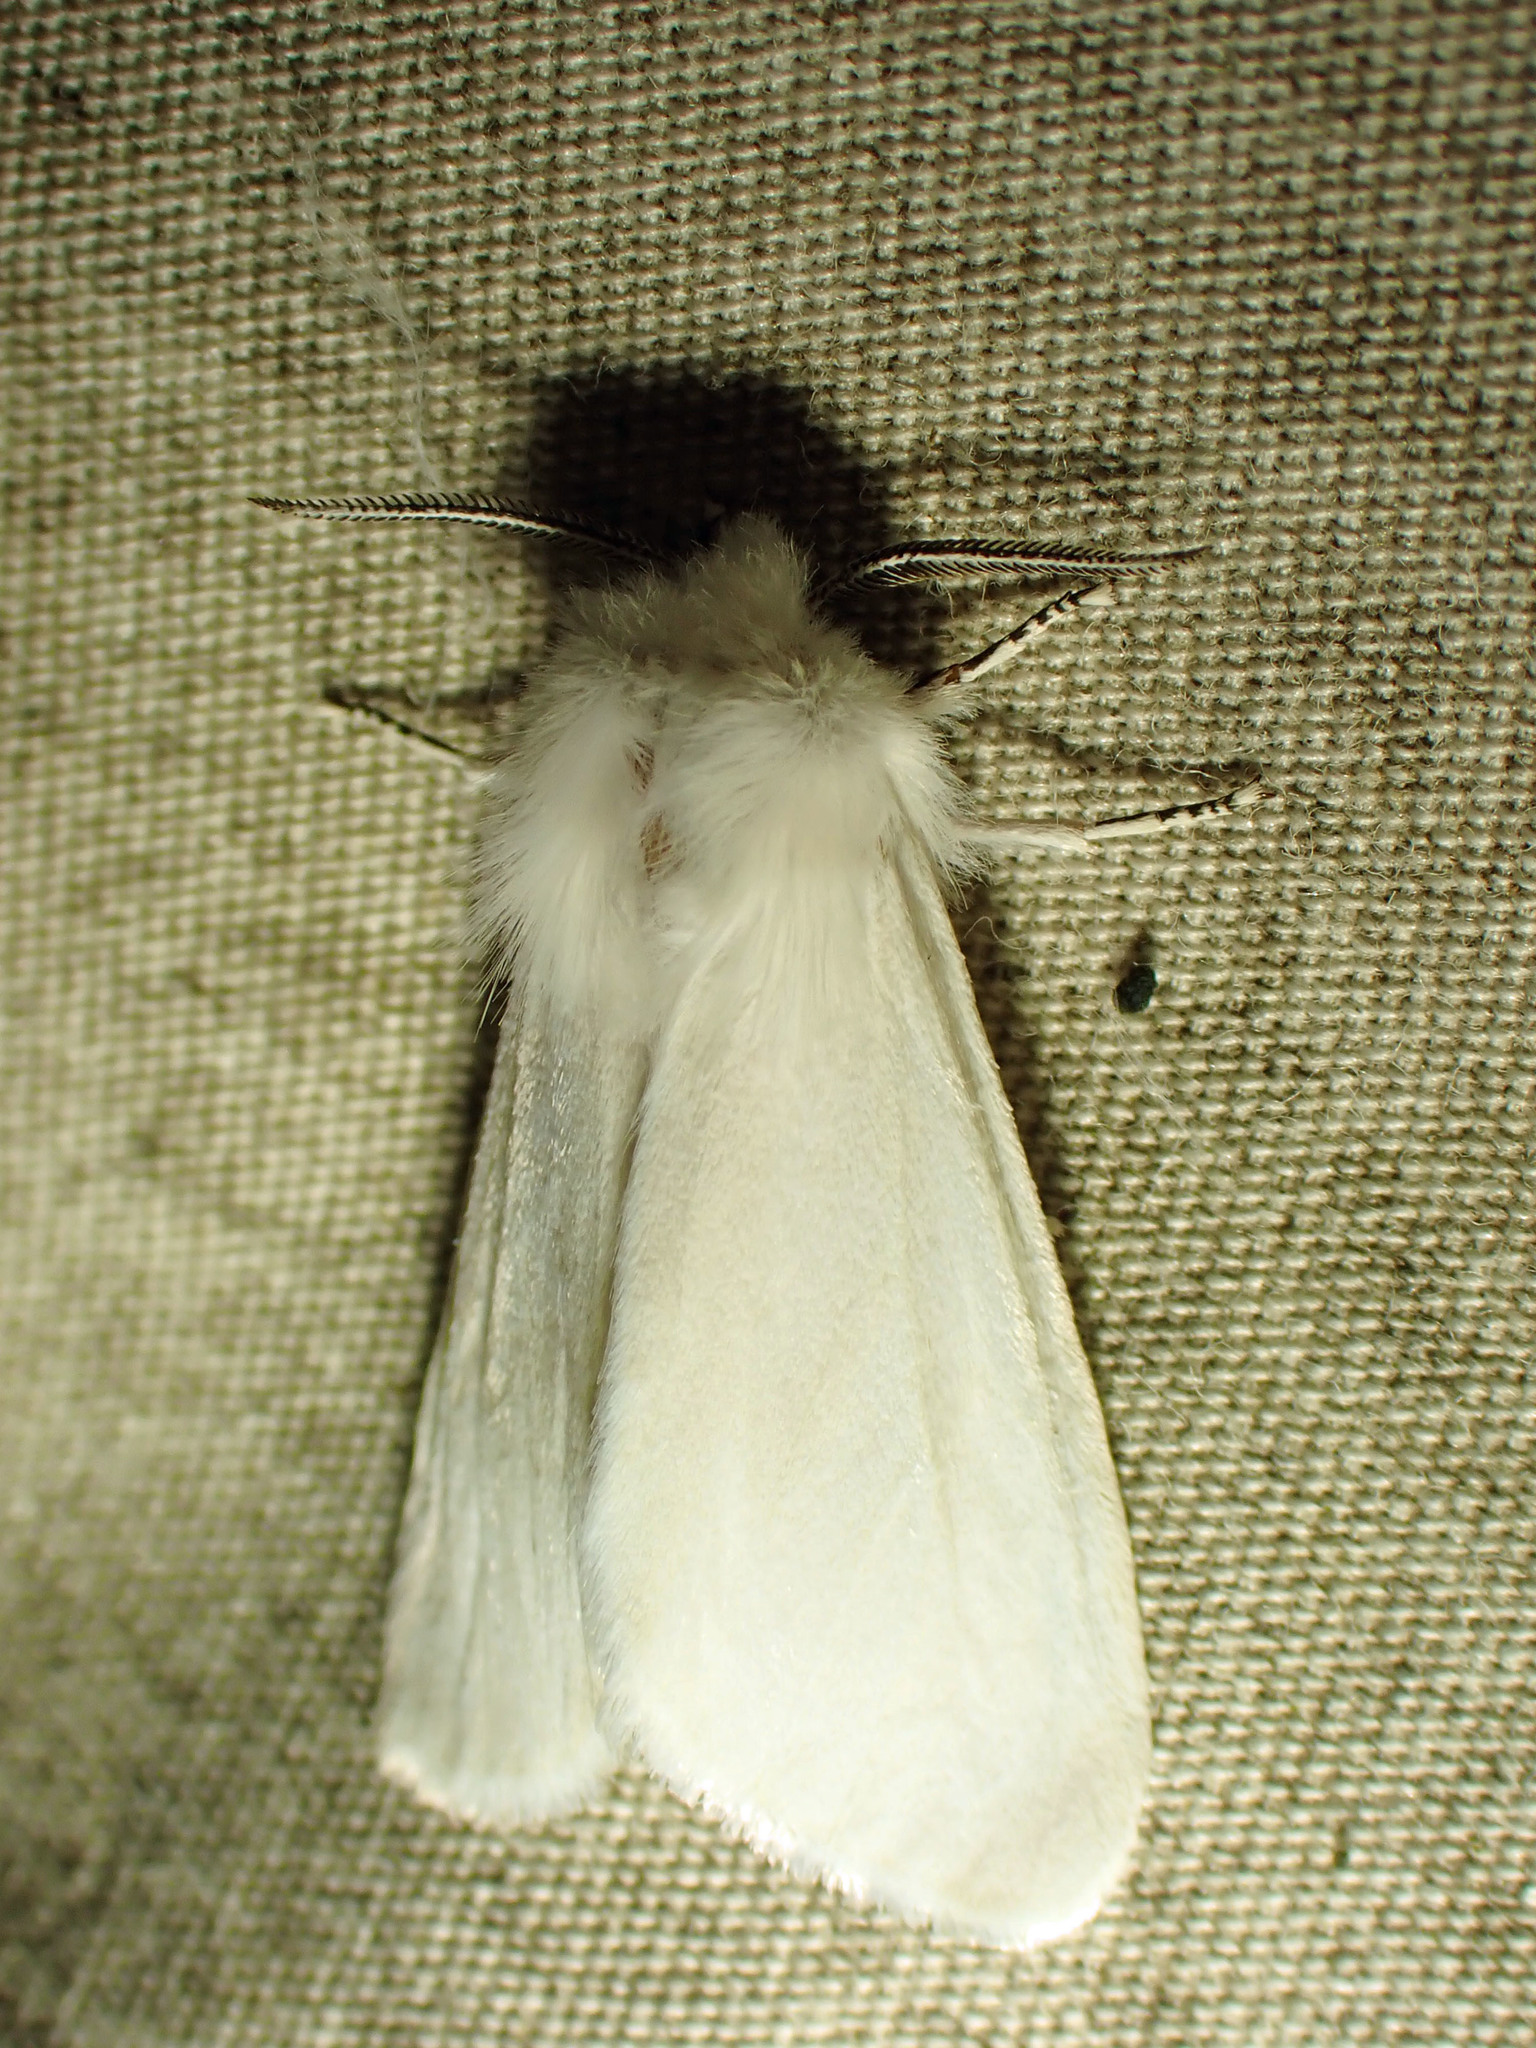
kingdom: Animalia
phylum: Arthropoda
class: Insecta
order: Lepidoptera
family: Erebidae
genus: Hyphantria
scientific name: Hyphantria cunea
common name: American white moth
